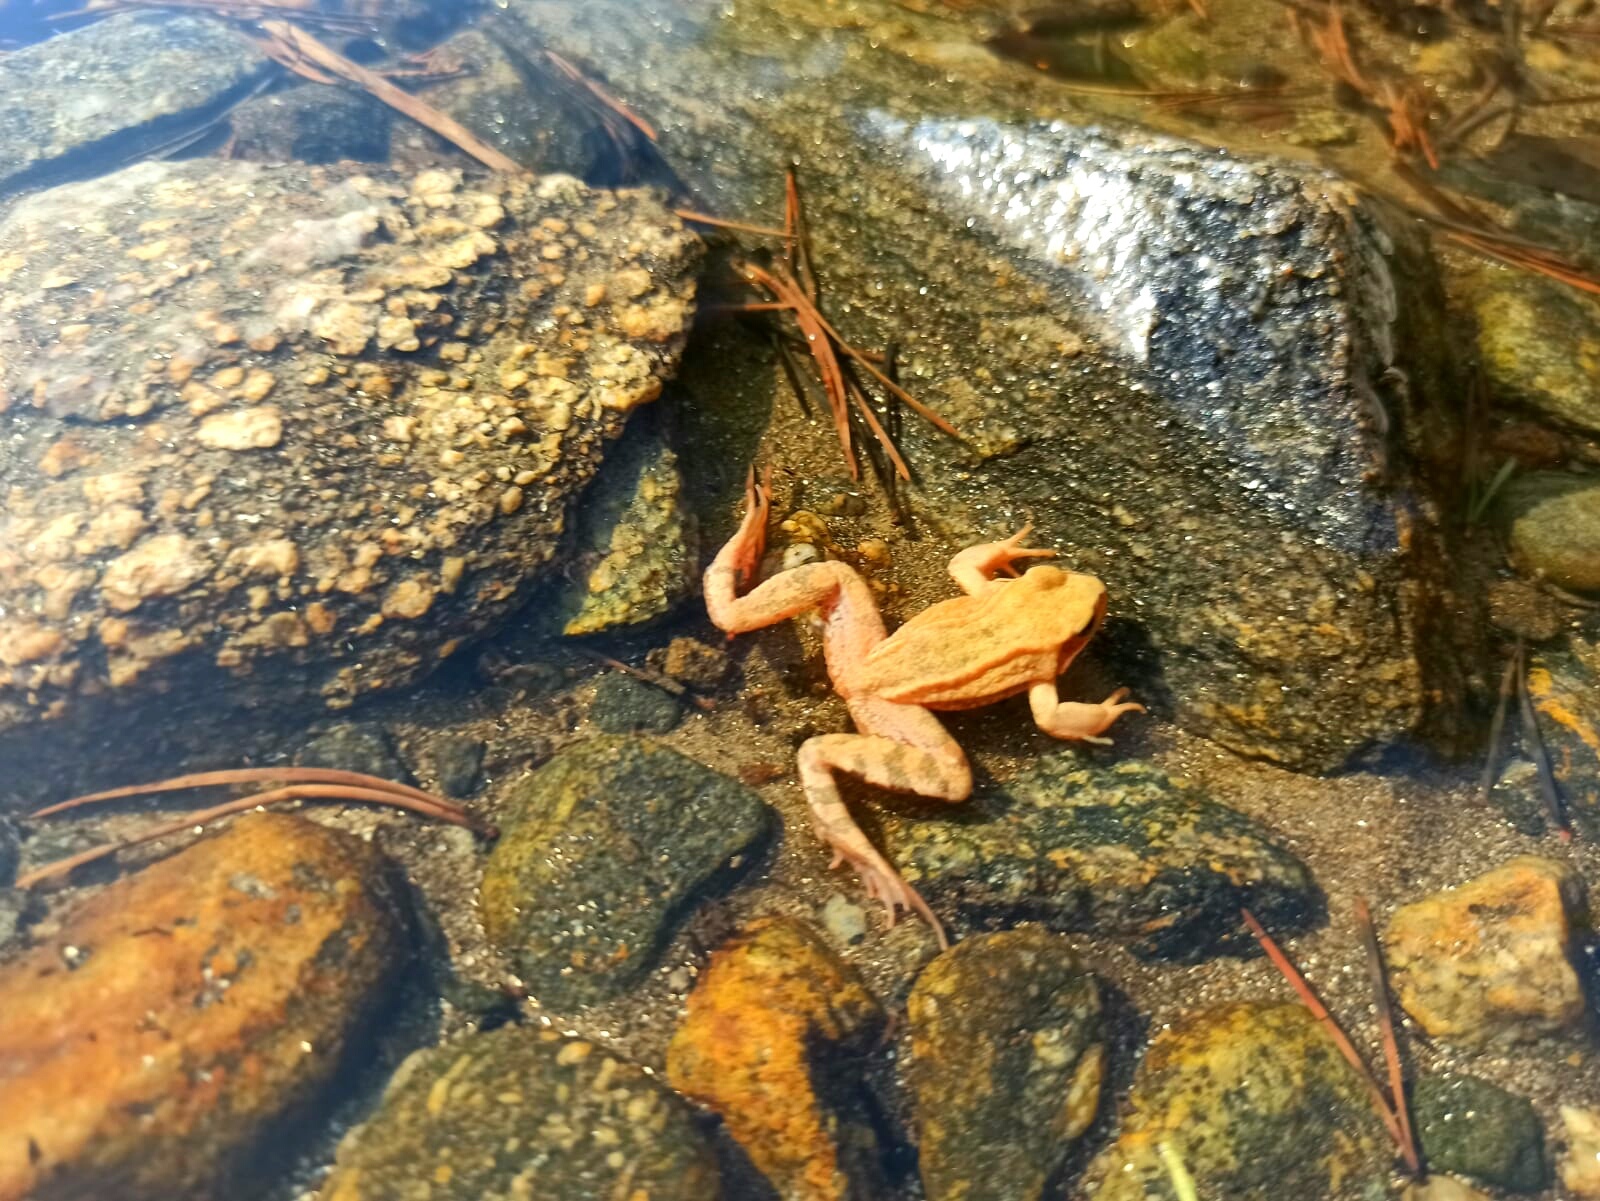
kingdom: Animalia
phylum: Chordata
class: Amphibia
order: Anura
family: Ranidae
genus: Rana
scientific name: Rana temporaria
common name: Common frog
